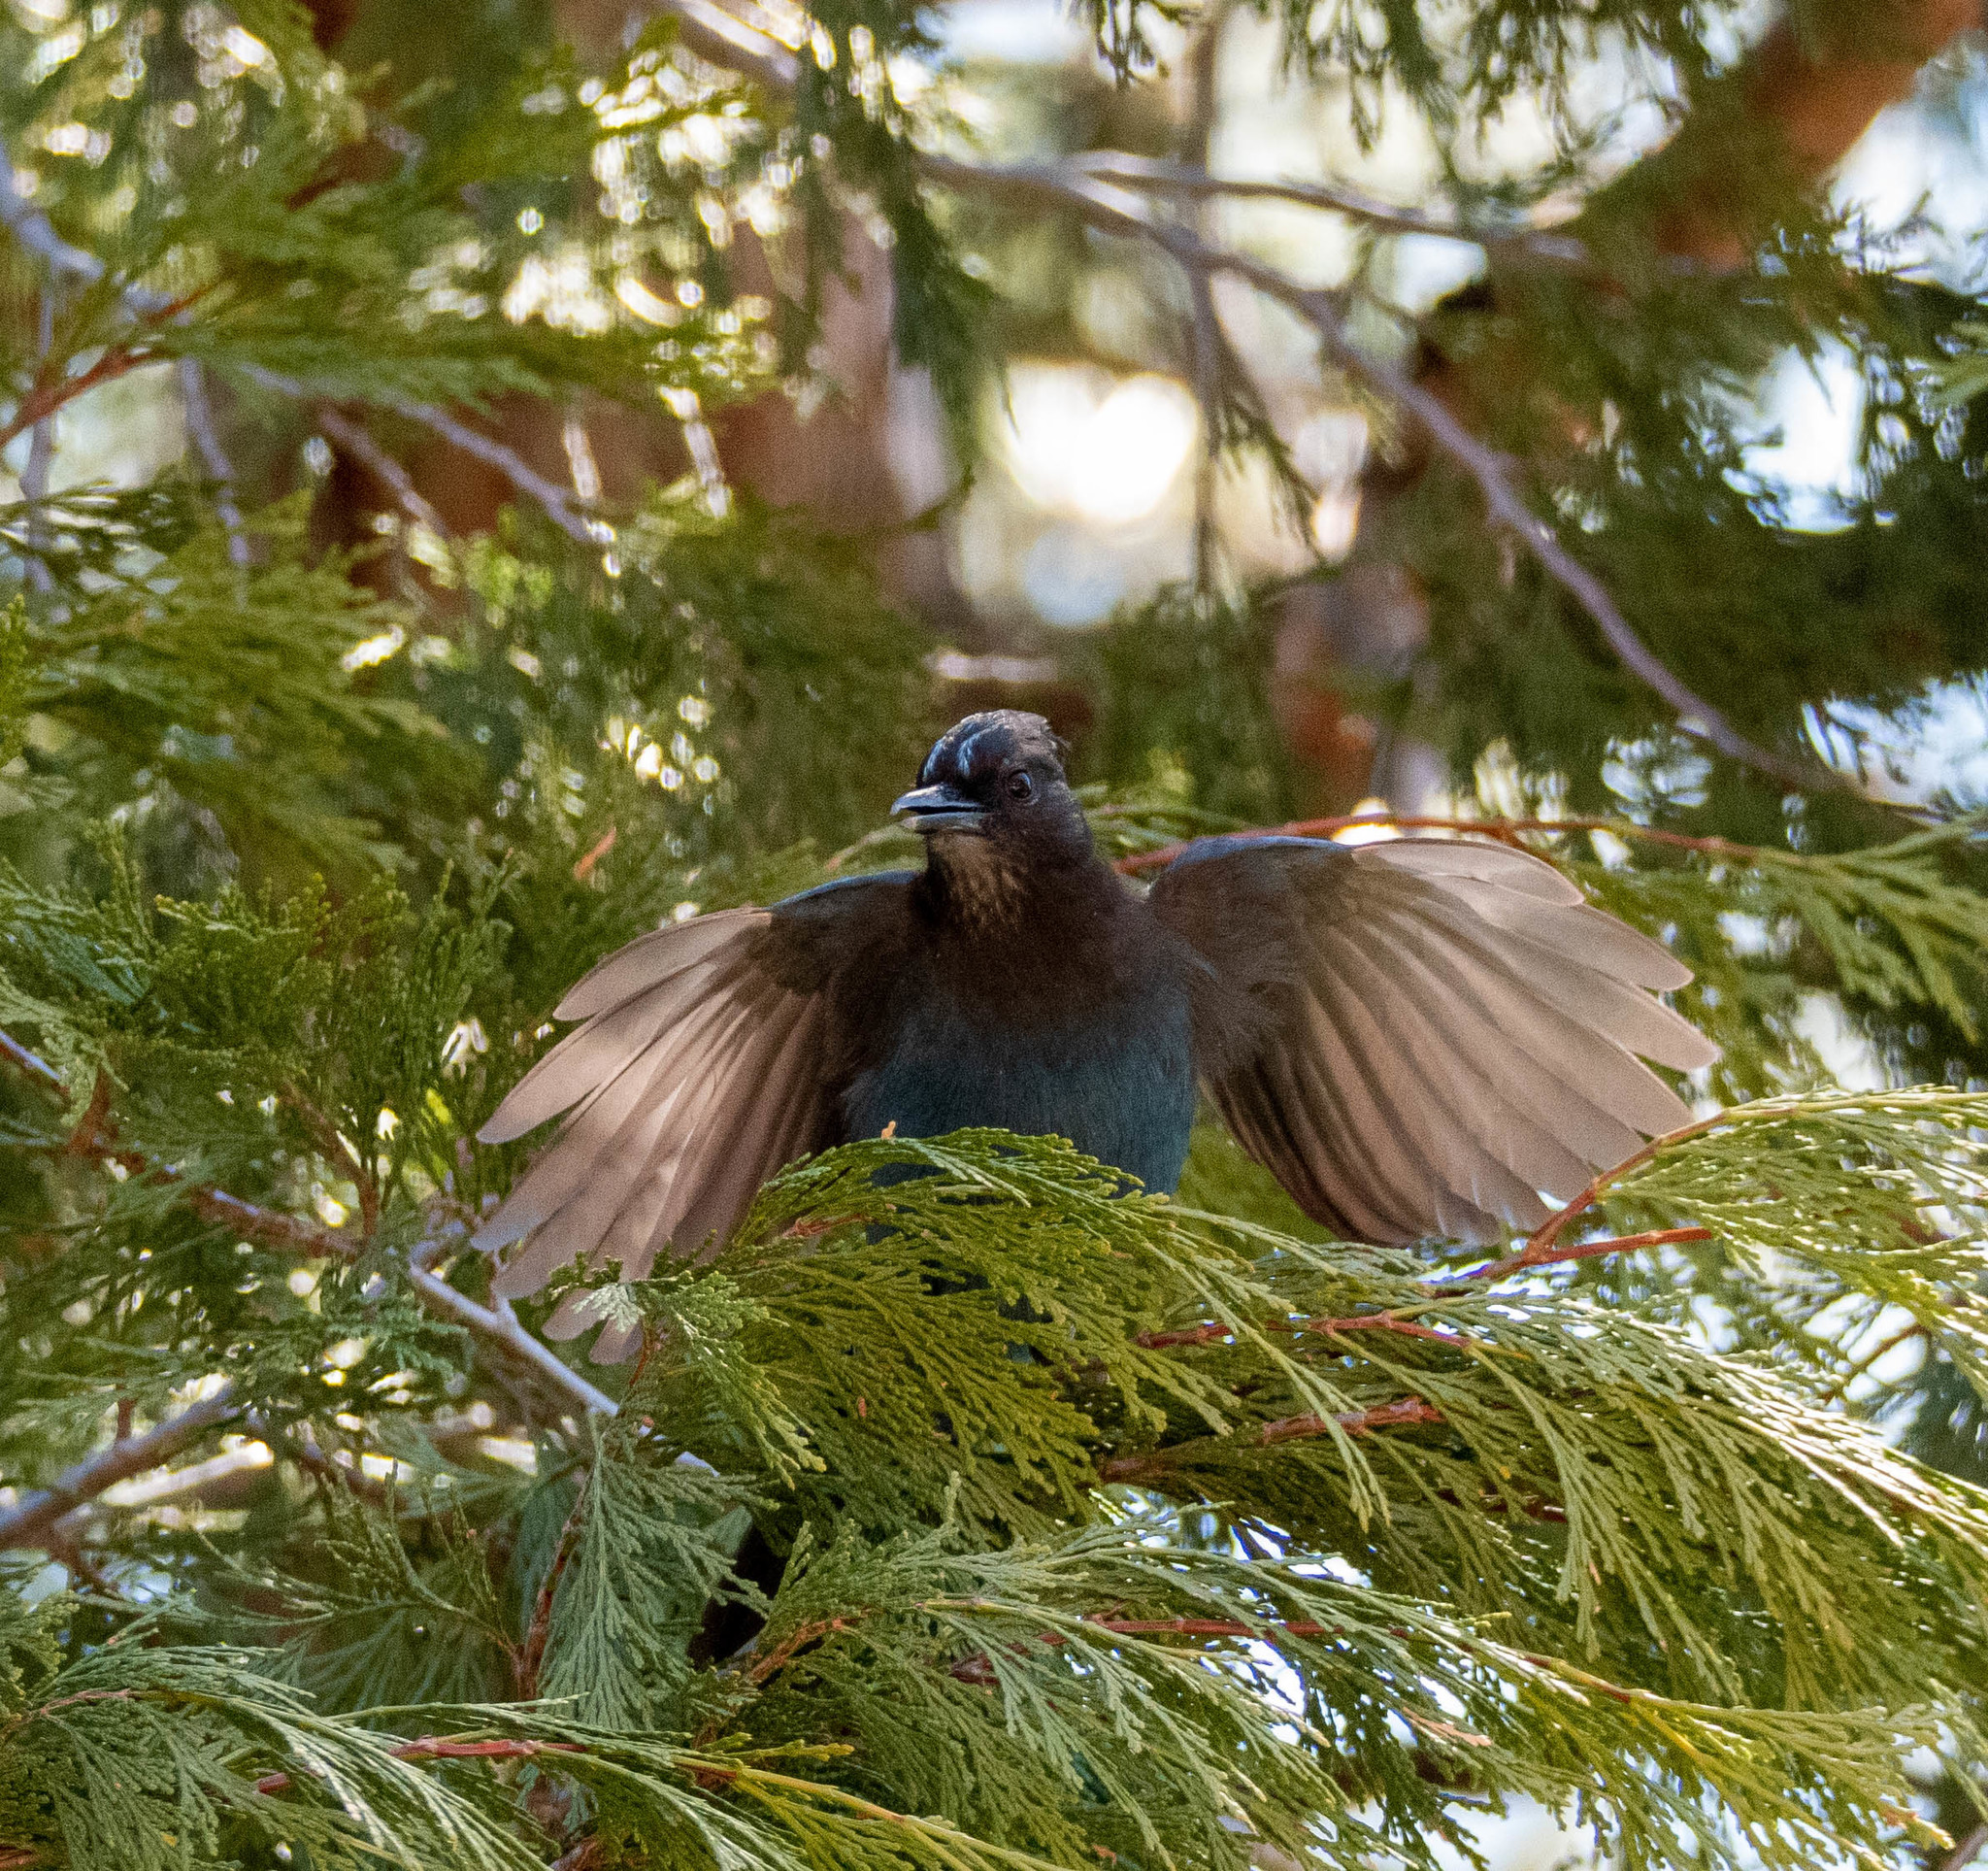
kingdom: Animalia
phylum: Chordata
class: Aves
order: Passeriformes
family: Corvidae
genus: Cyanocitta
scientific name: Cyanocitta stelleri
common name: Steller's jay
